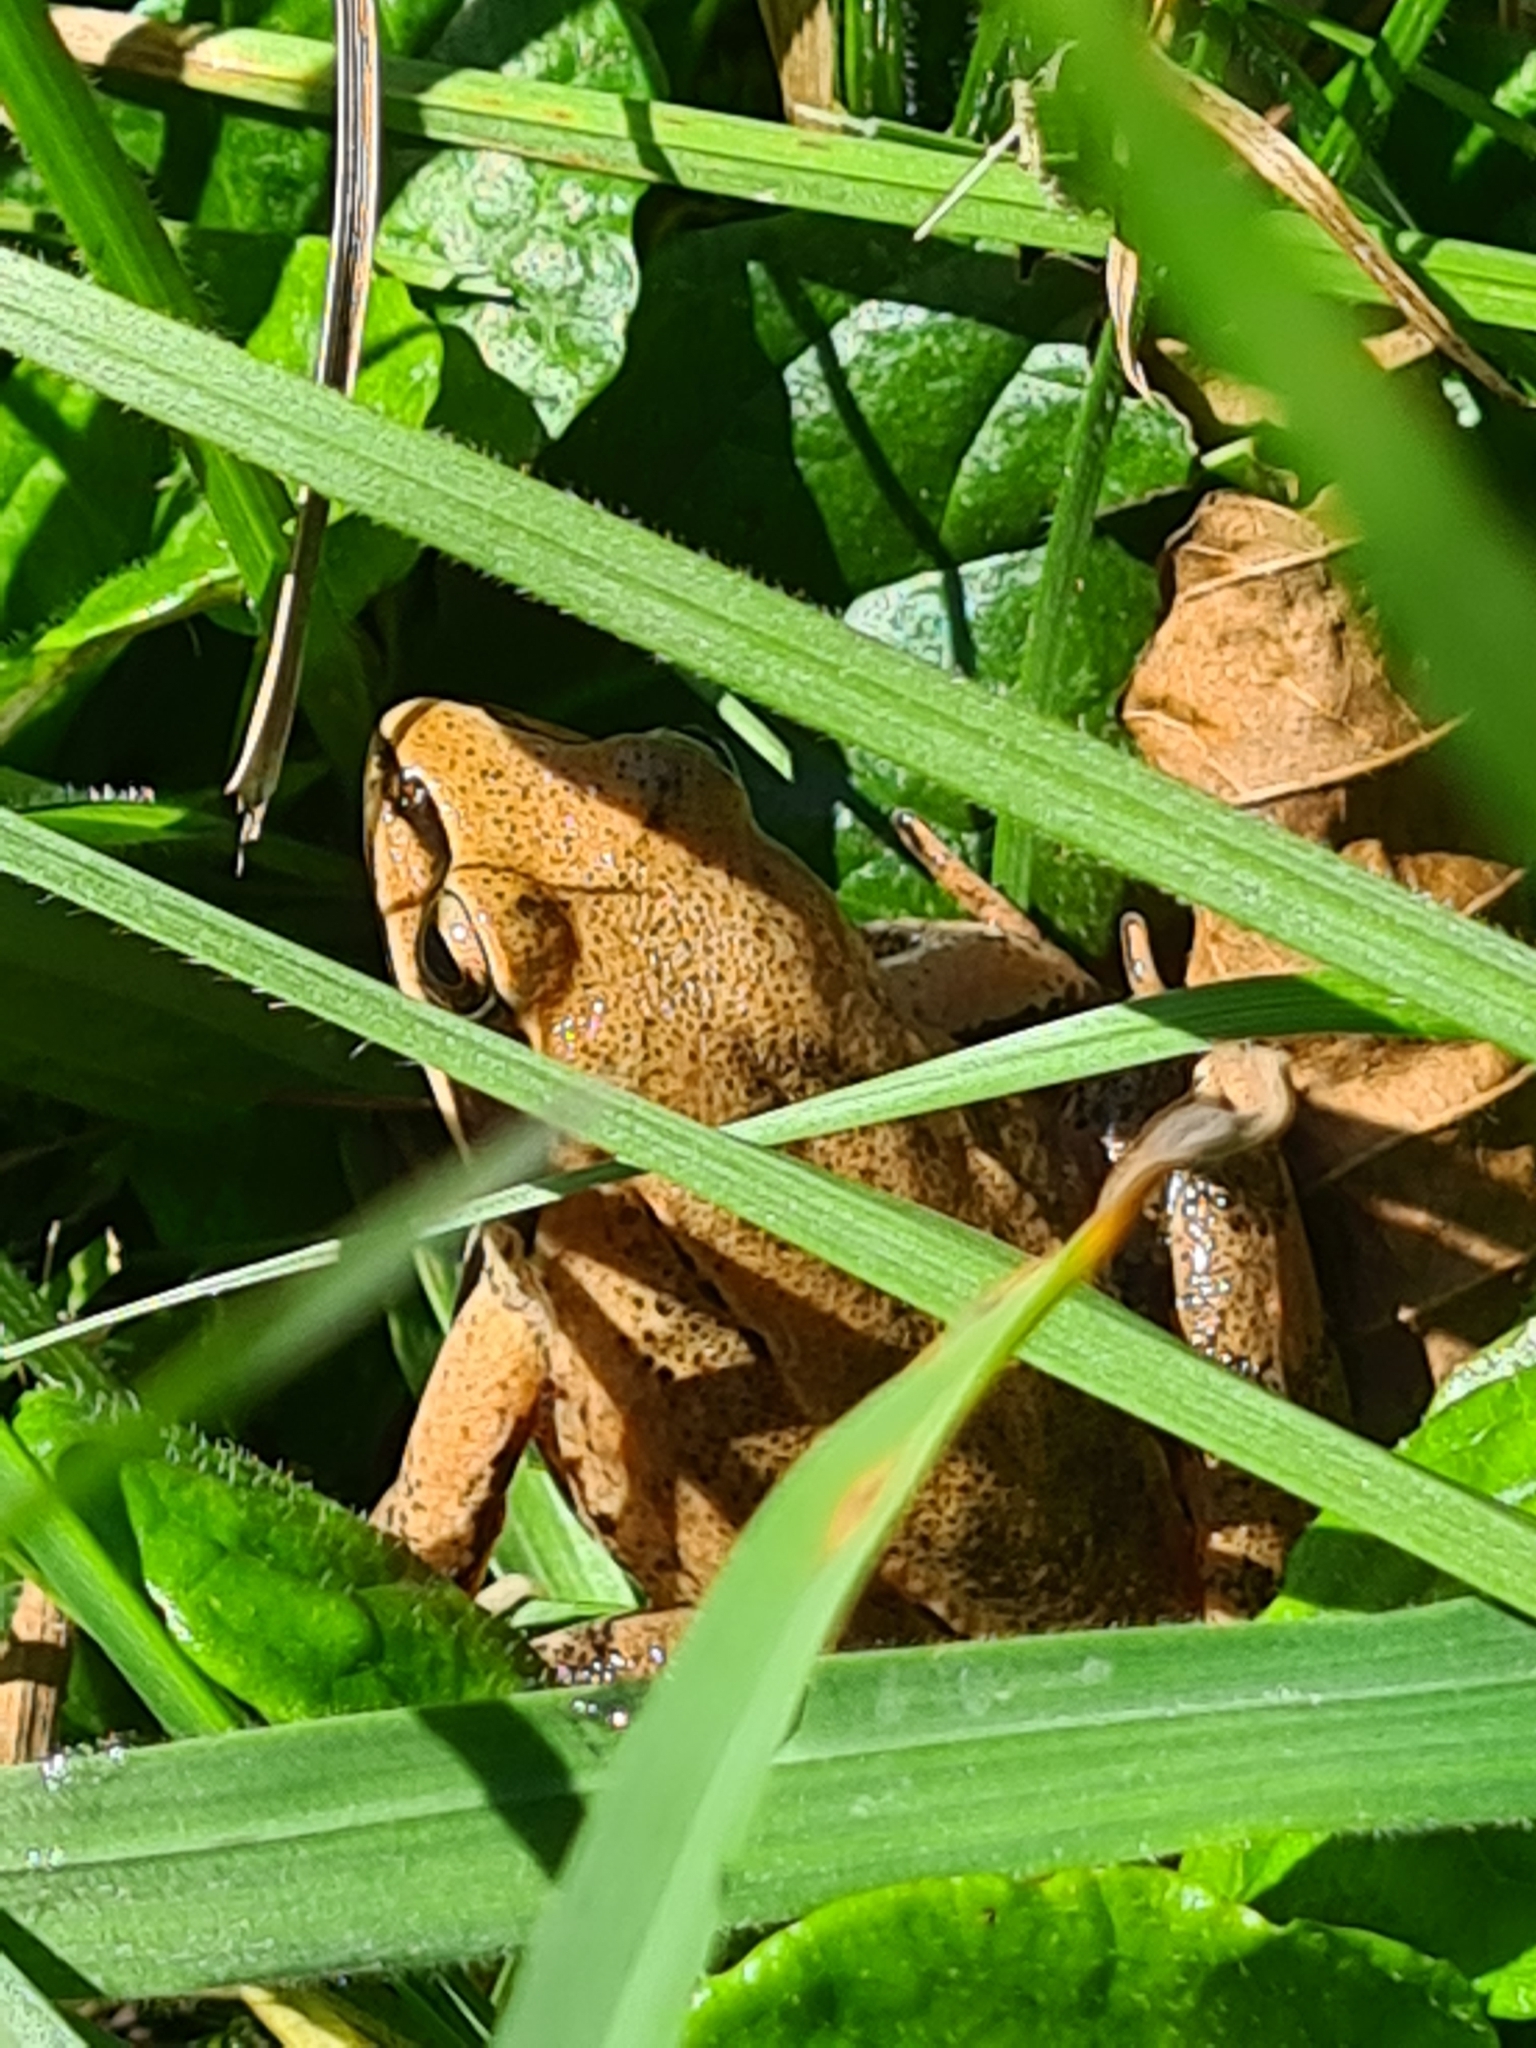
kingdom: Animalia
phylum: Chordata
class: Amphibia
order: Anura
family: Ranidae
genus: Rana
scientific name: Rana temporaria
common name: Common frog
